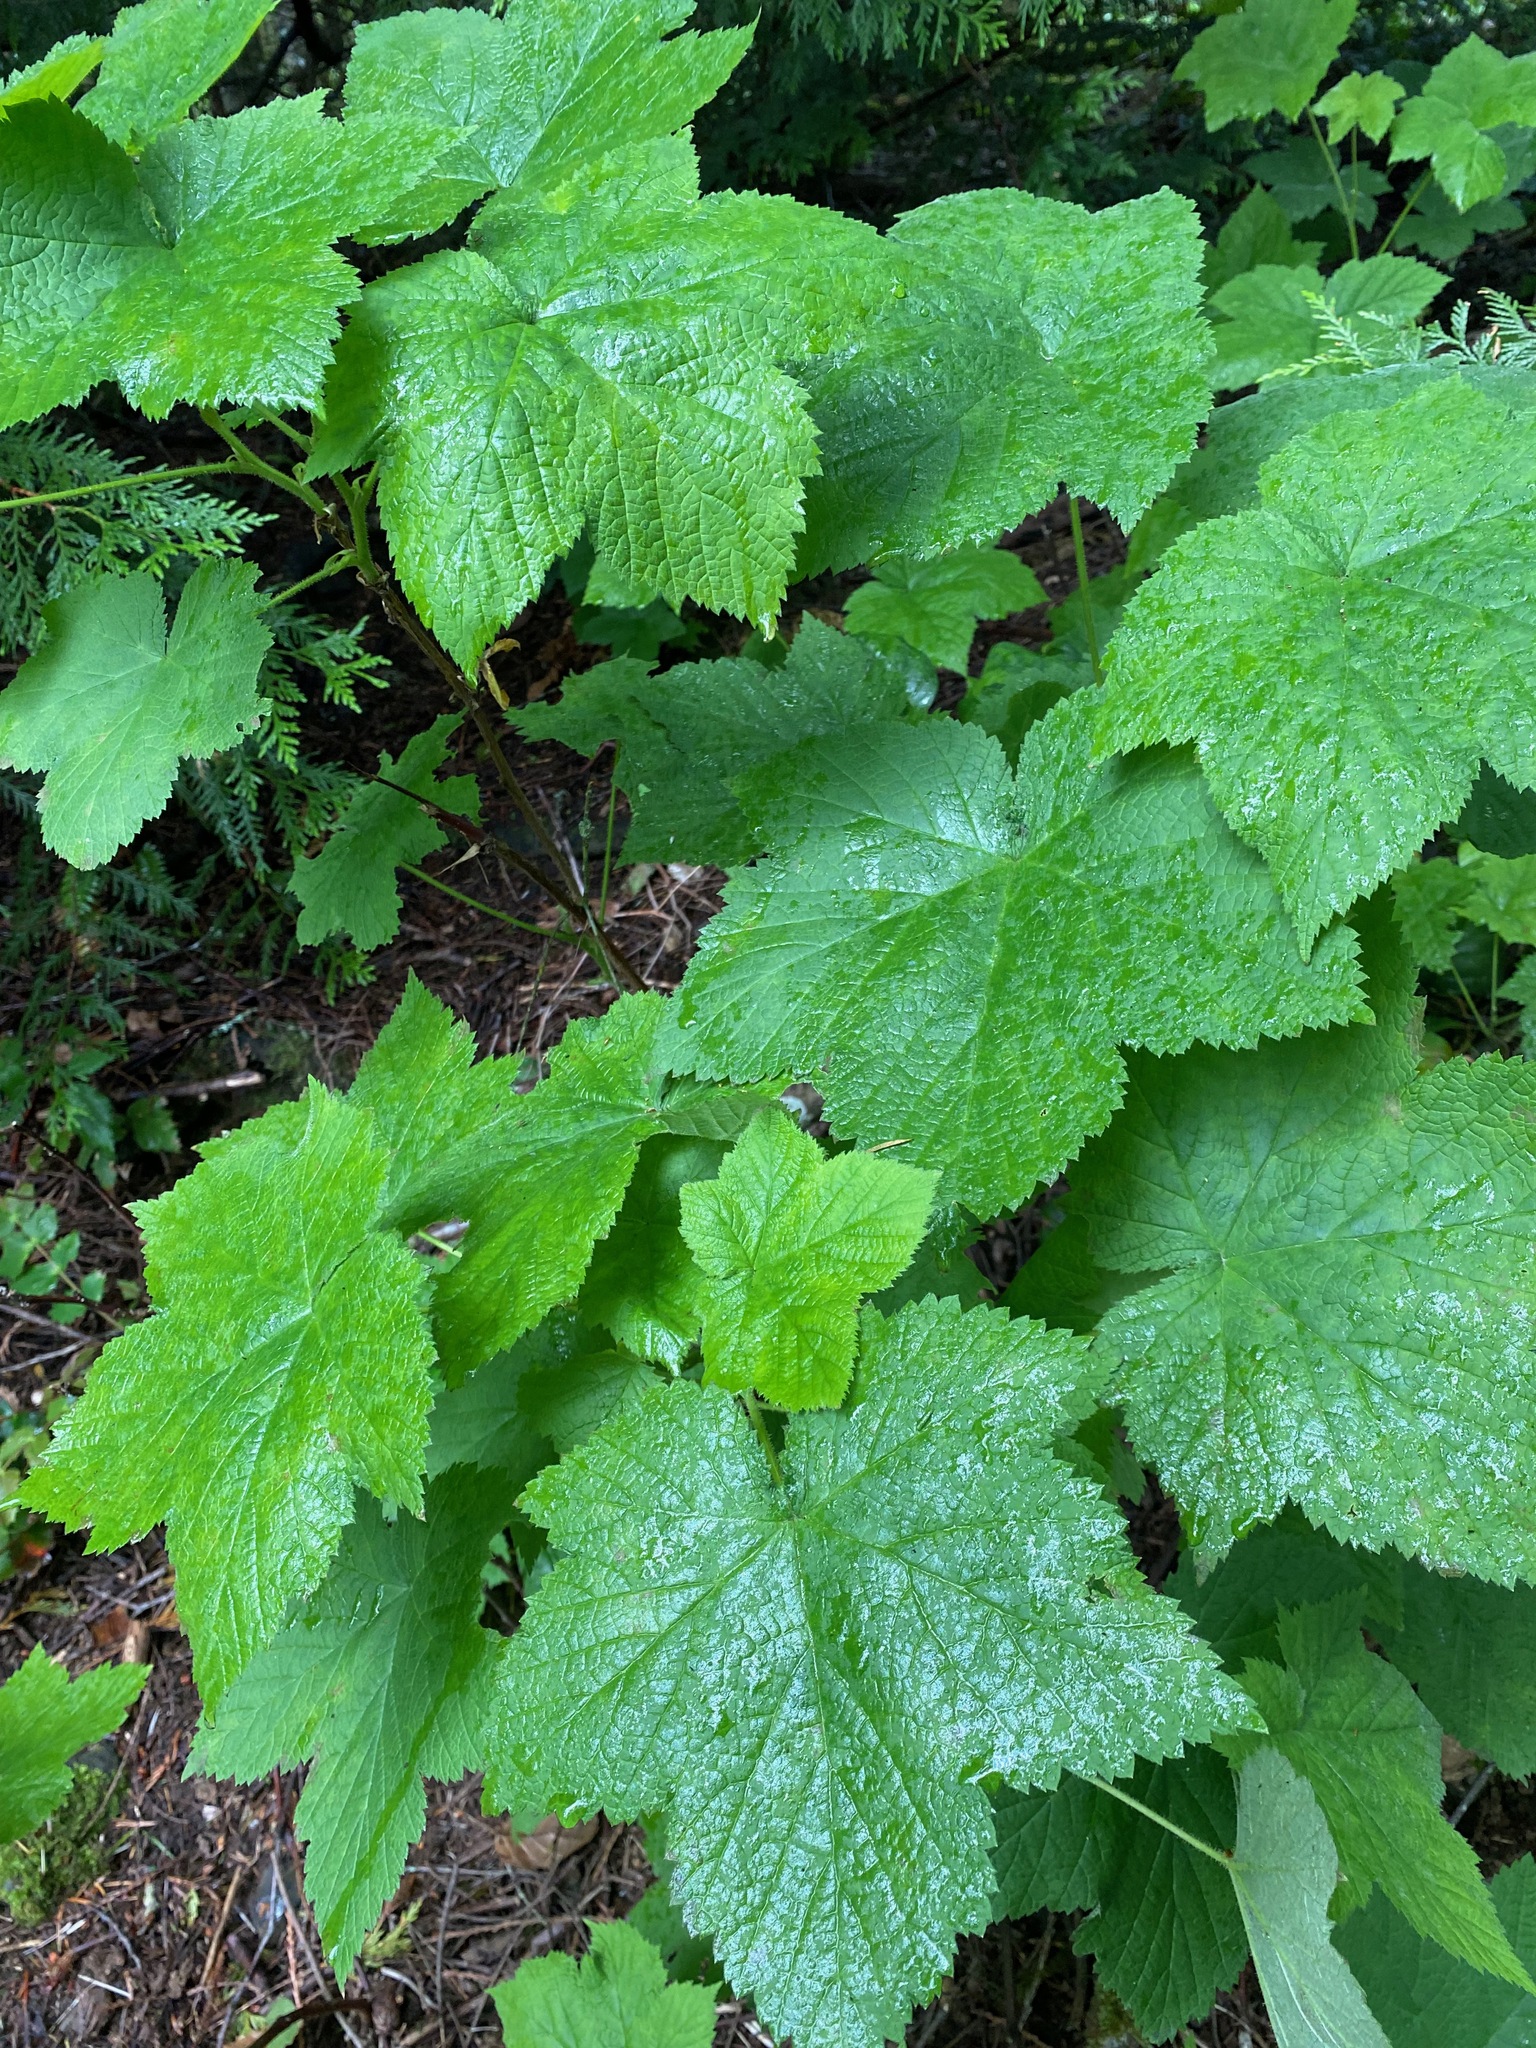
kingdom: Plantae
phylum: Tracheophyta
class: Magnoliopsida
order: Rosales
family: Rosaceae
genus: Rubus
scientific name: Rubus parviflorus
